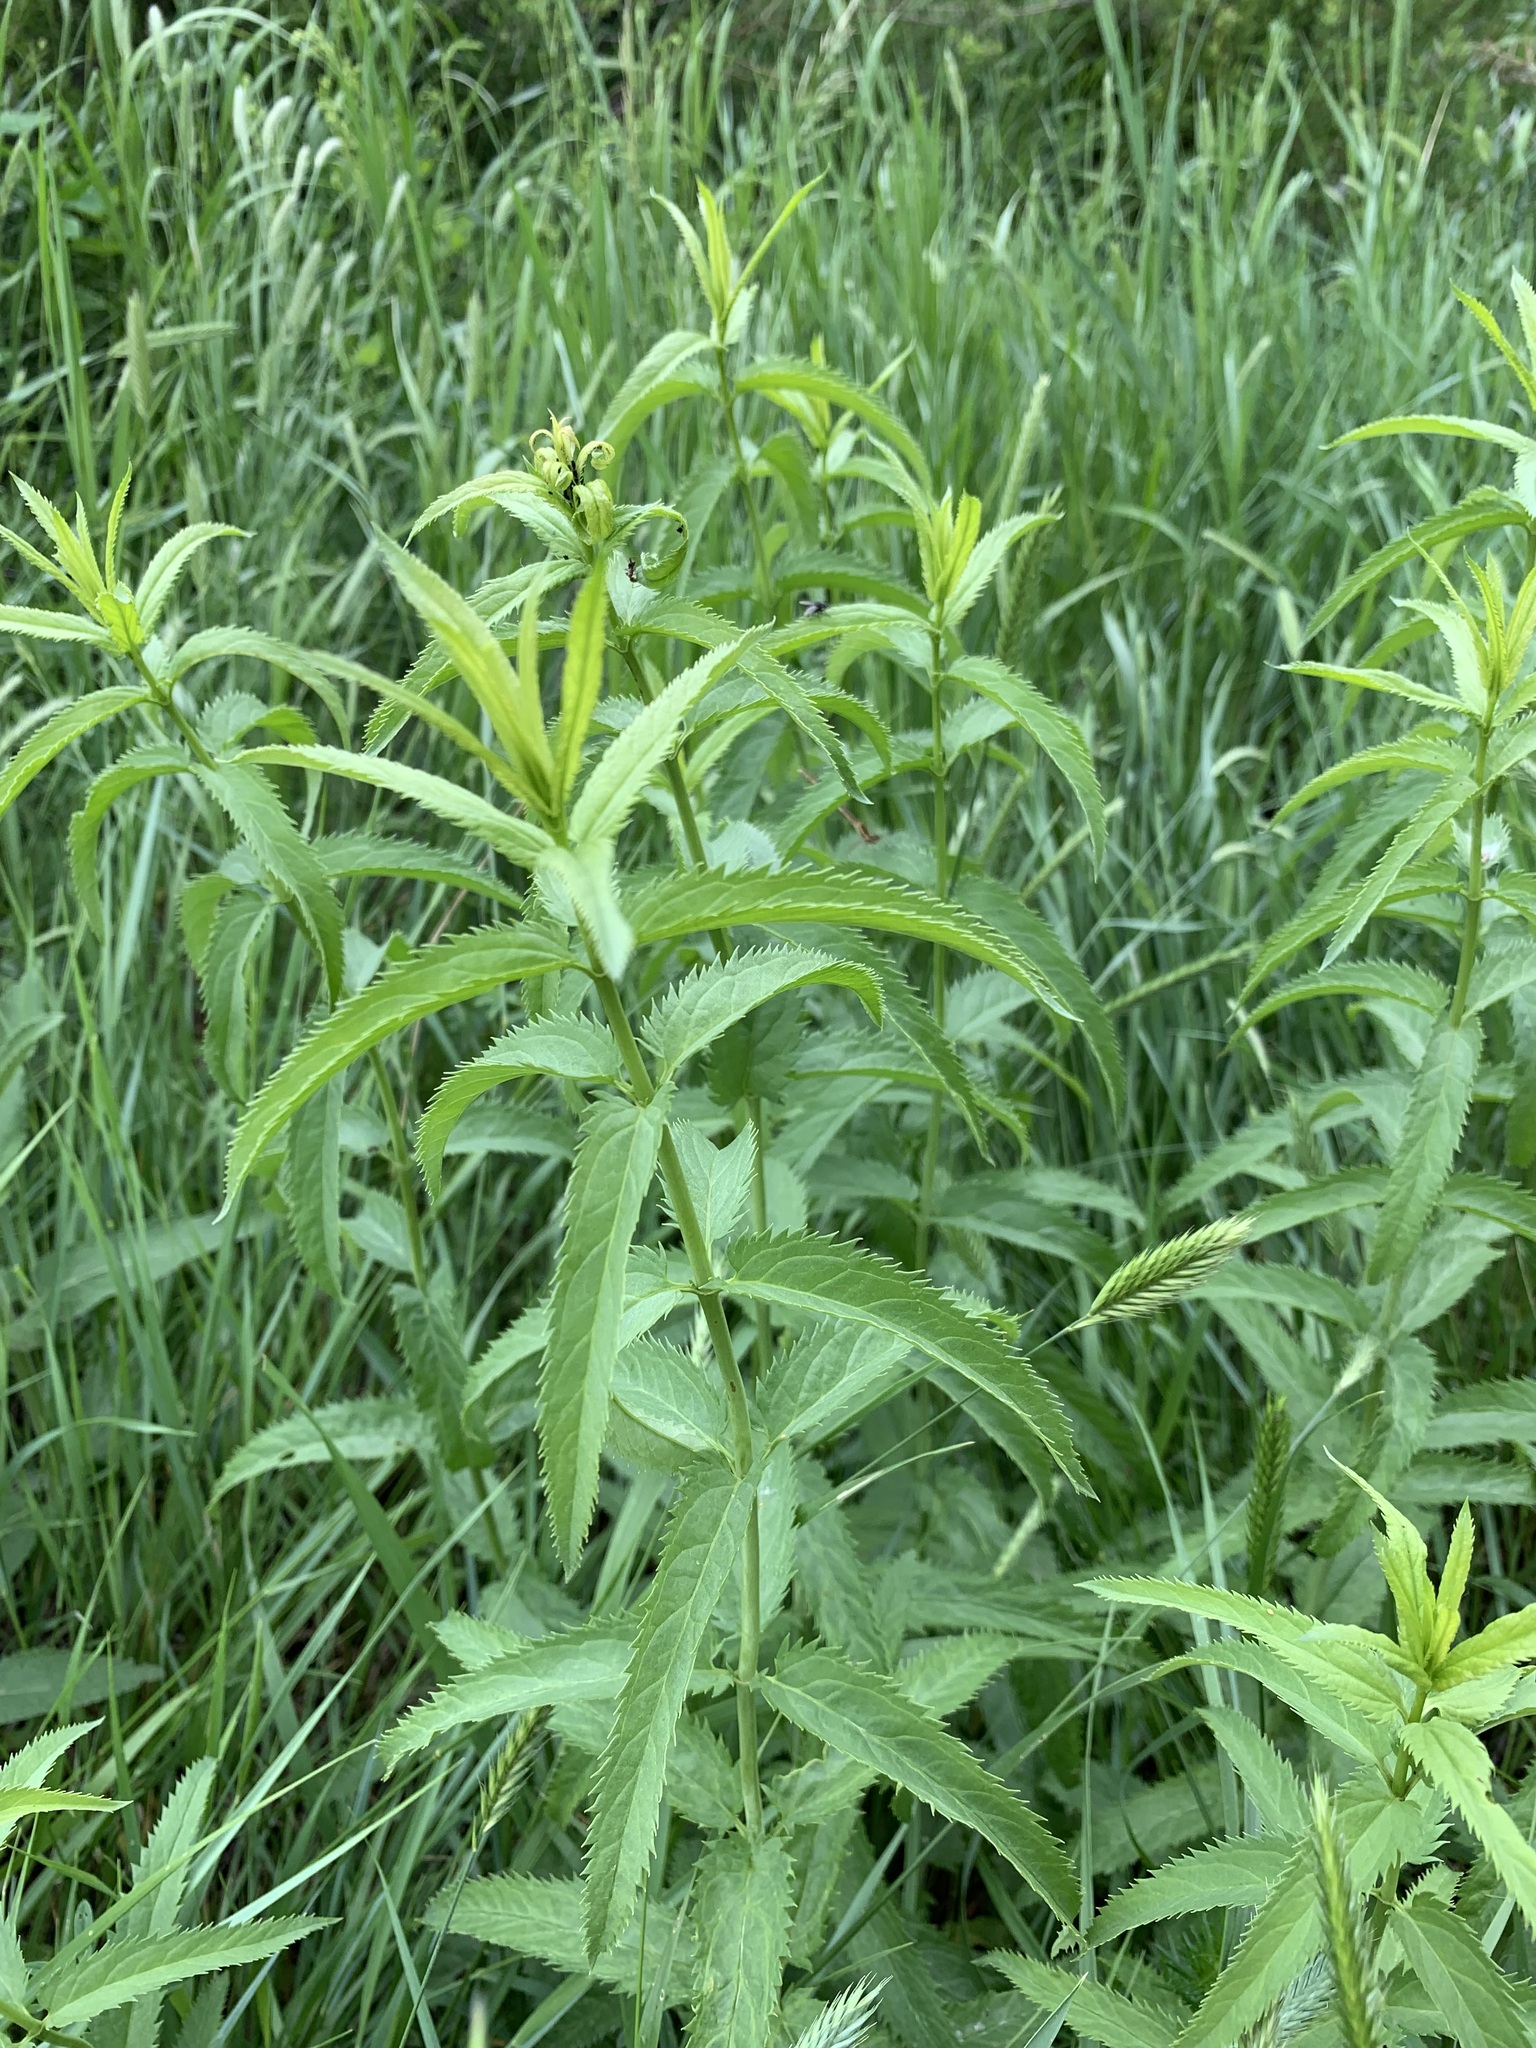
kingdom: Plantae
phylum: Tracheophyta
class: Magnoliopsida
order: Lamiales
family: Plantaginaceae
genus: Veronica
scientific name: Veronica longifolia
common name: Garden speedwell
